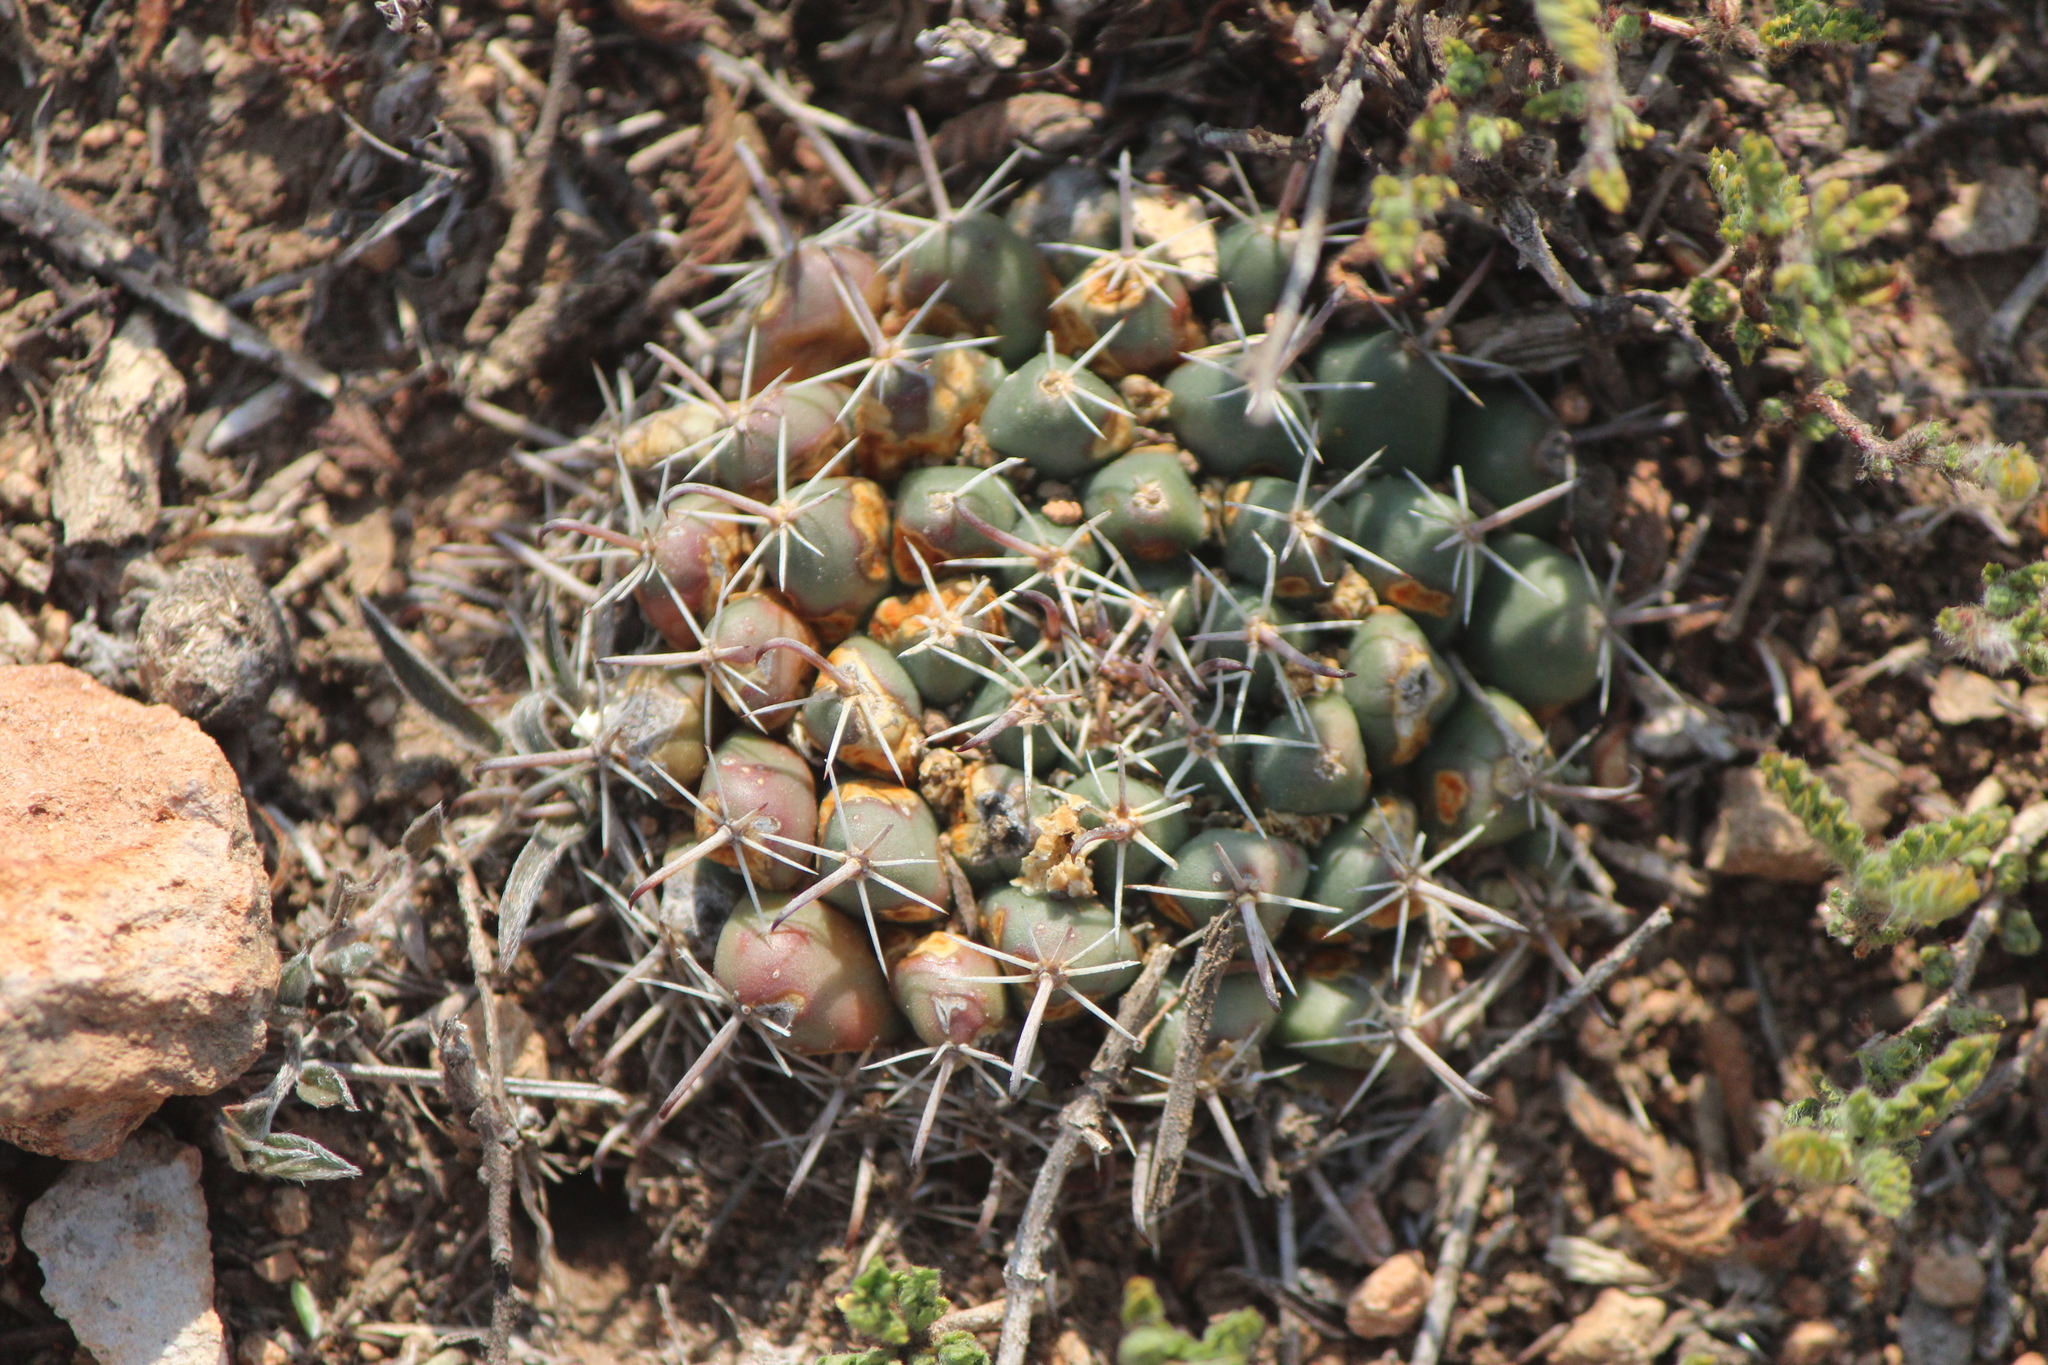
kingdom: Plantae
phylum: Tracheophyta
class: Magnoliopsida
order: Caryophyllales
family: Cactaceae
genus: Mammillaria
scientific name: Mammillaria uncinata
